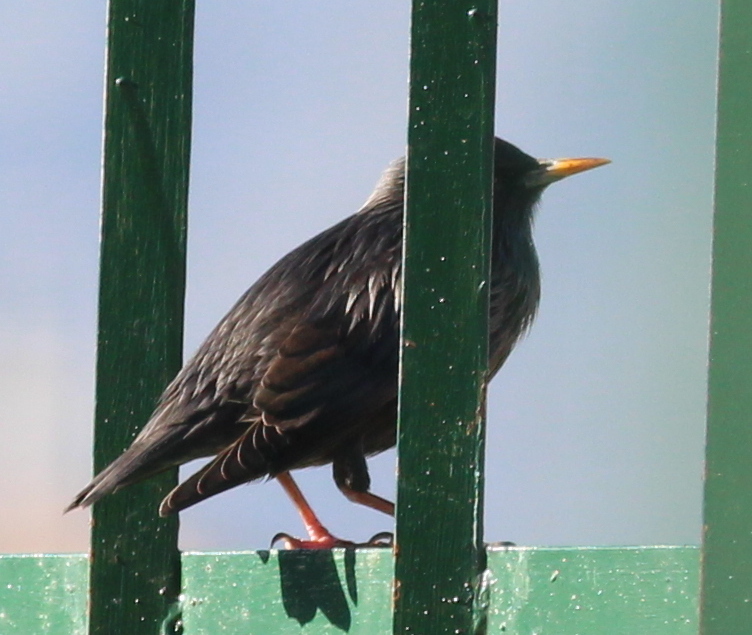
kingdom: Animalia
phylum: Chordata
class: Aves
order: Passeriformes
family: Sturnidae
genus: Sturnus
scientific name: Sturnus unicolor
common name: Spotless starling
